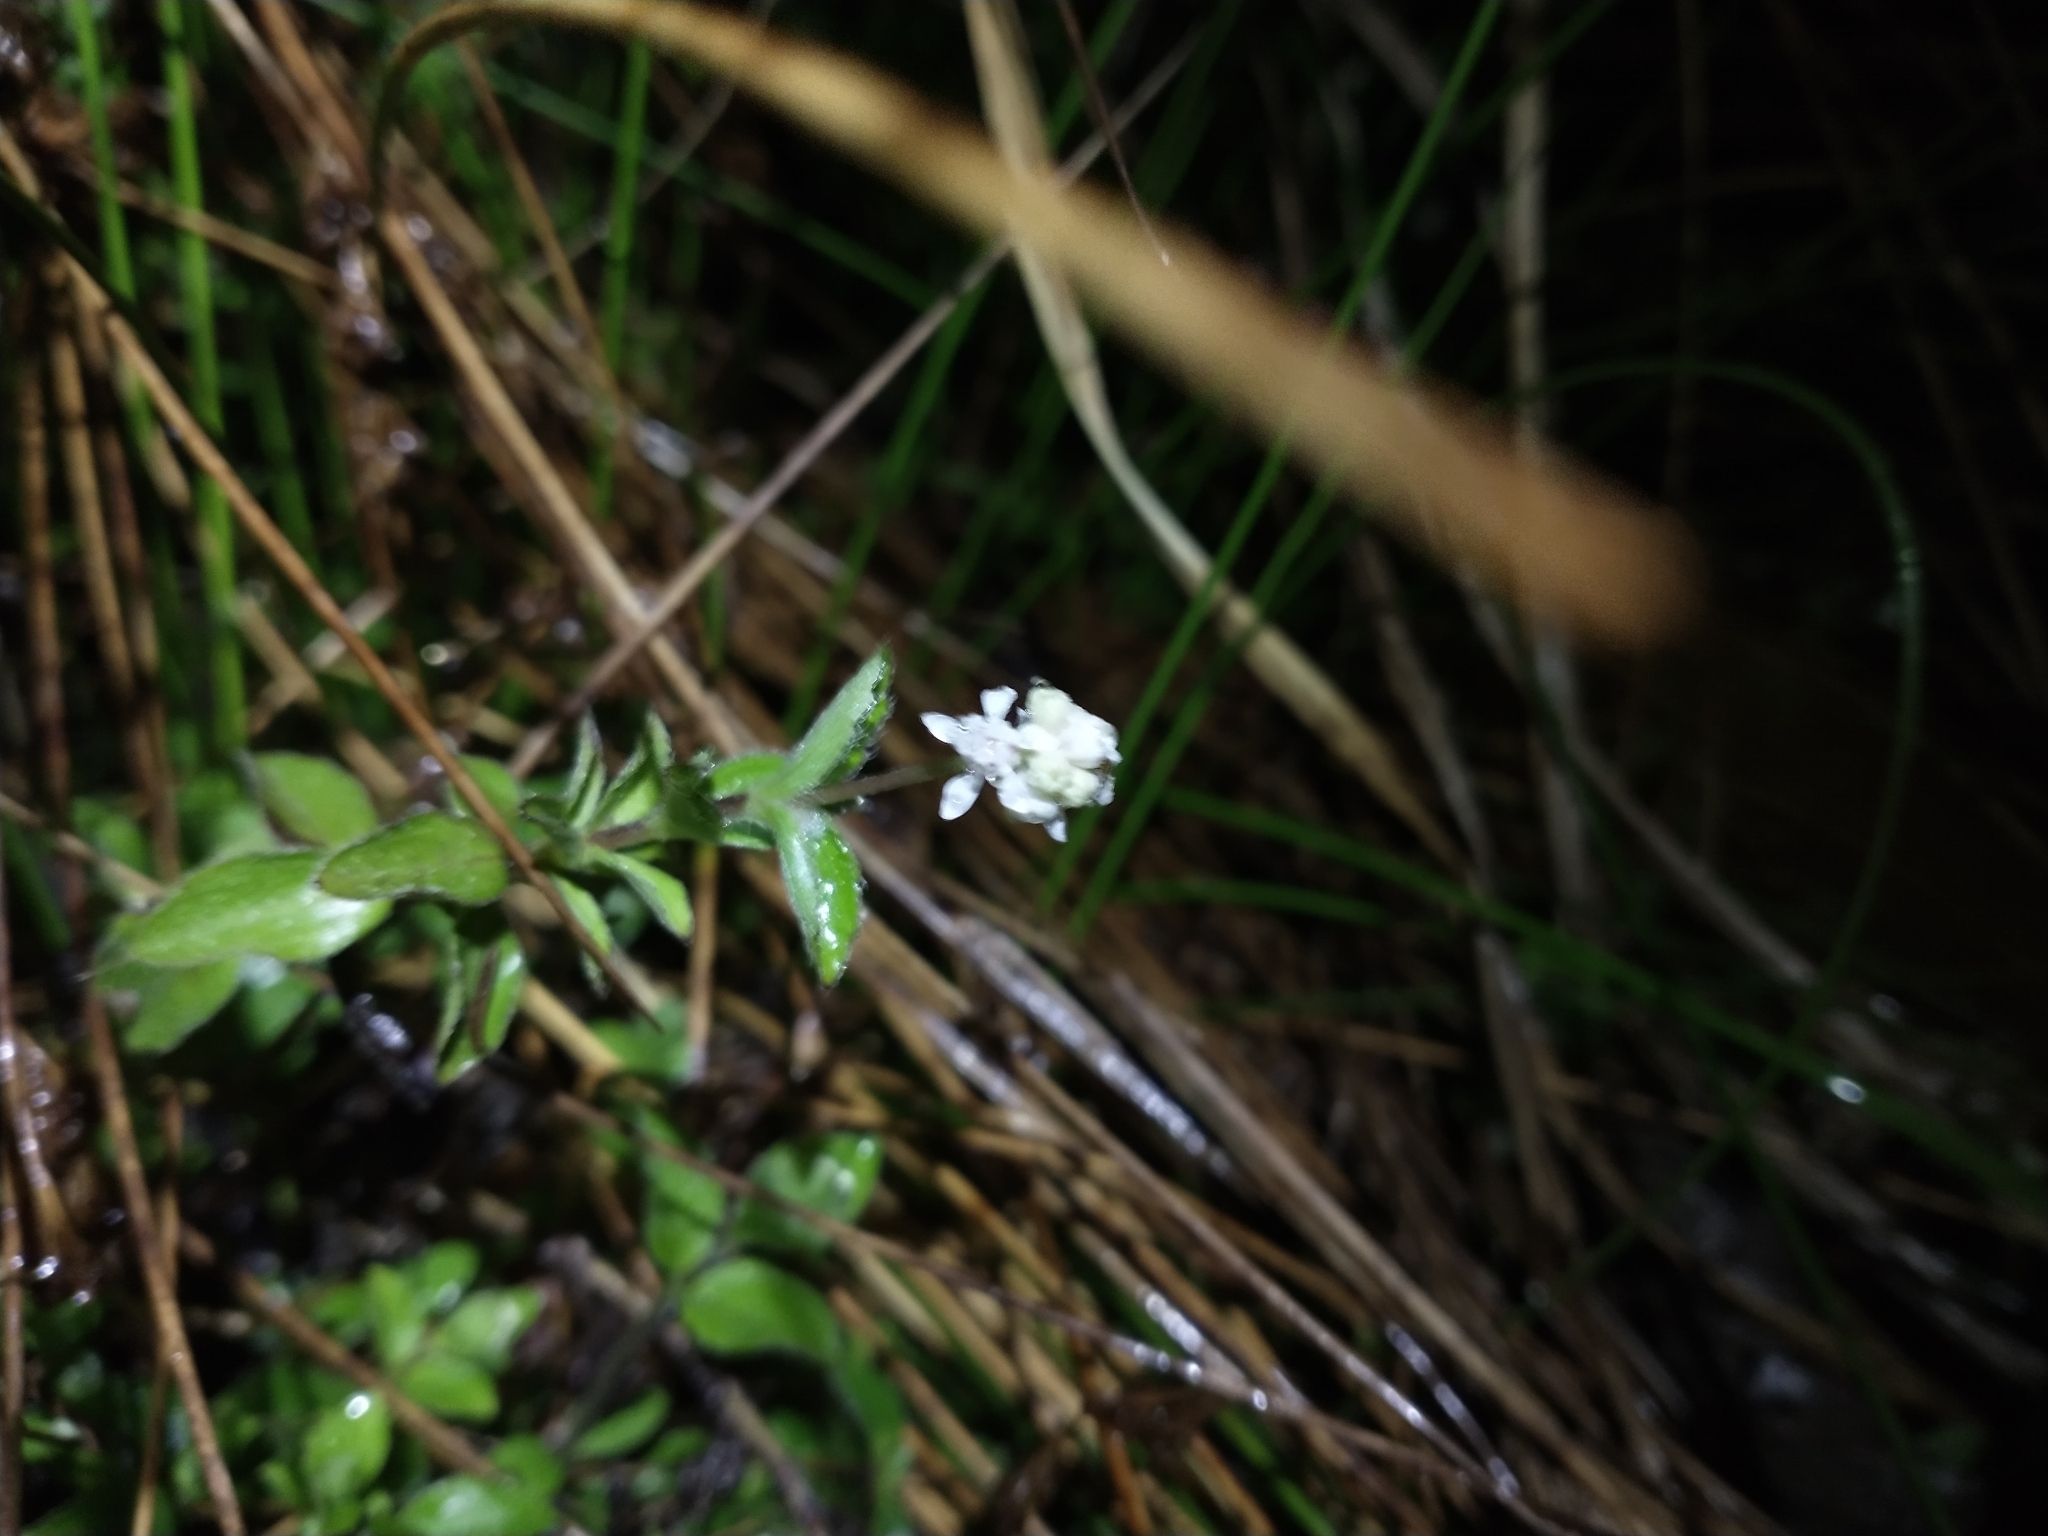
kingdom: Plantae
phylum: Tracheophyta
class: Magnoliopsida
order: Cornales
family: Hydrangeaceae
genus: Whipplea
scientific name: Whipplea modesta
